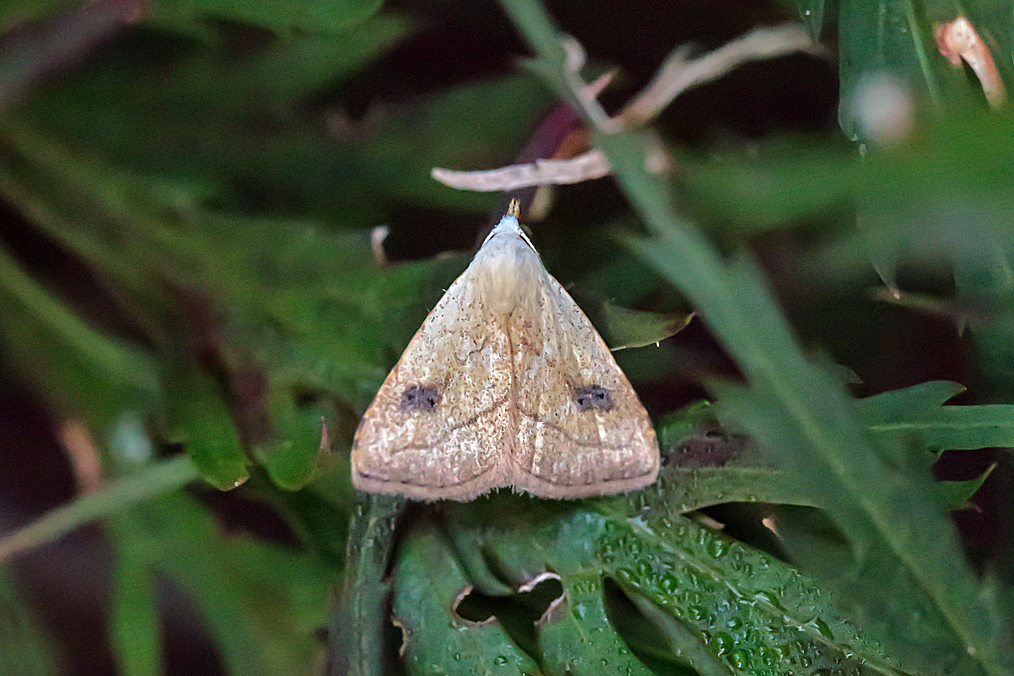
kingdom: Animalia
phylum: Arthropoda
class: Insecta
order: Lepidoptera
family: Erebidae
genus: Rivula
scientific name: Rivula propinqualis
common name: Spotted grass moth
